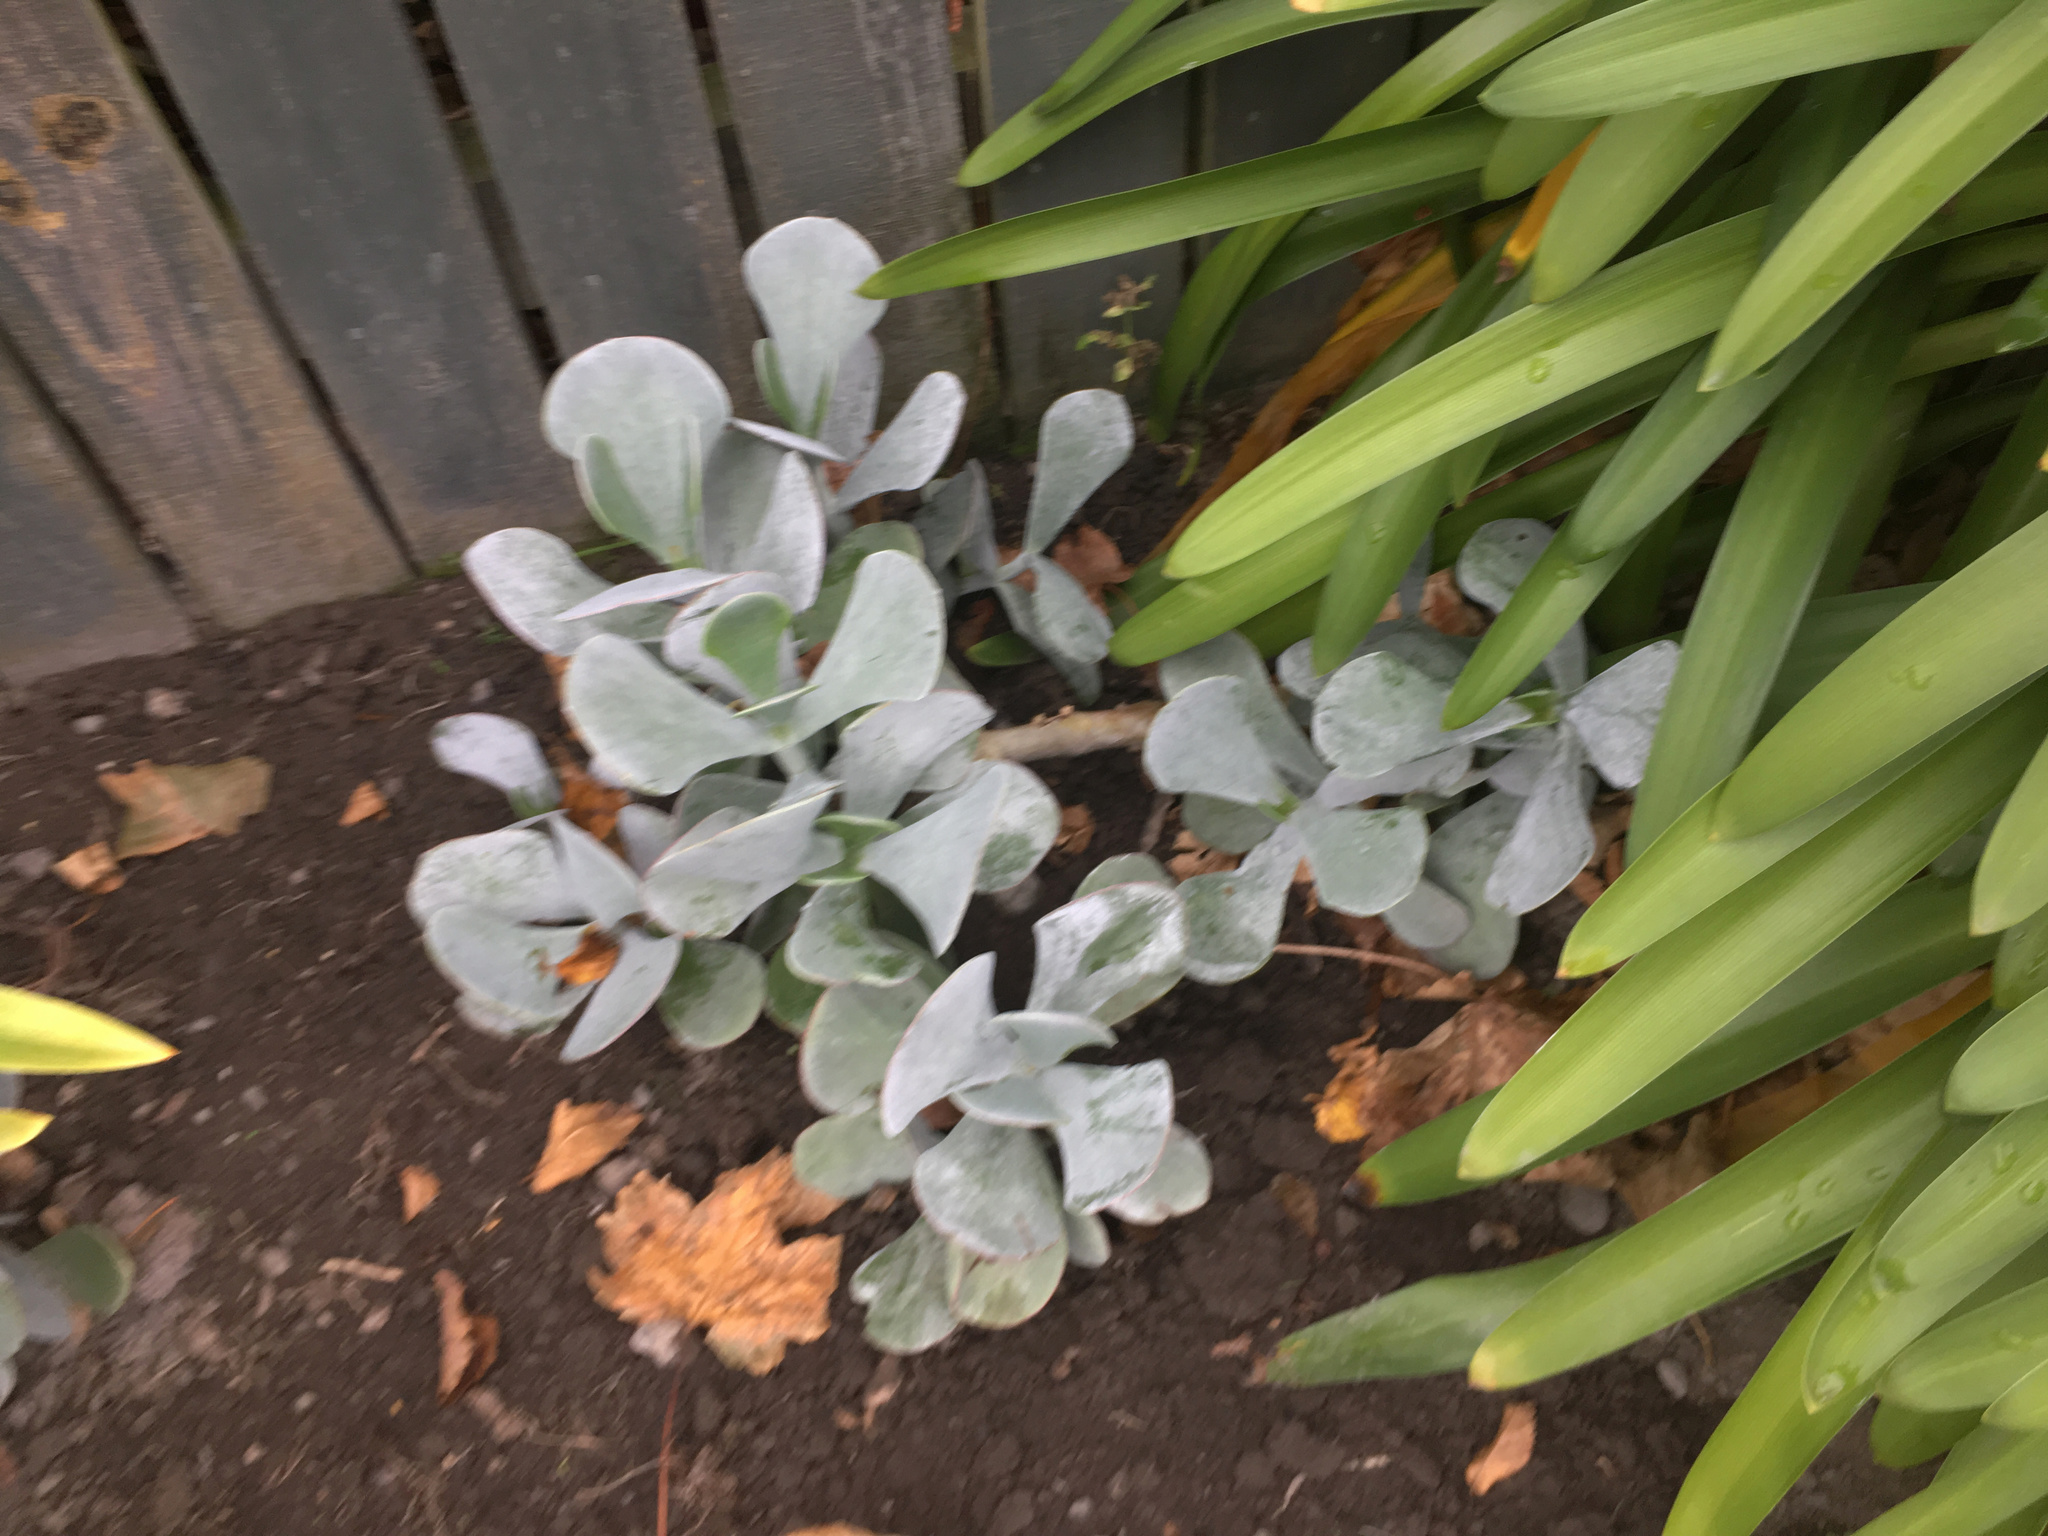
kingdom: Plantae
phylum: Tracheophyta
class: Magnoliopsida
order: Saxifragales
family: Crassulaceae
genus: Cotyledon
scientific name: Cotyledon orbiculata
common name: Pig's ear
